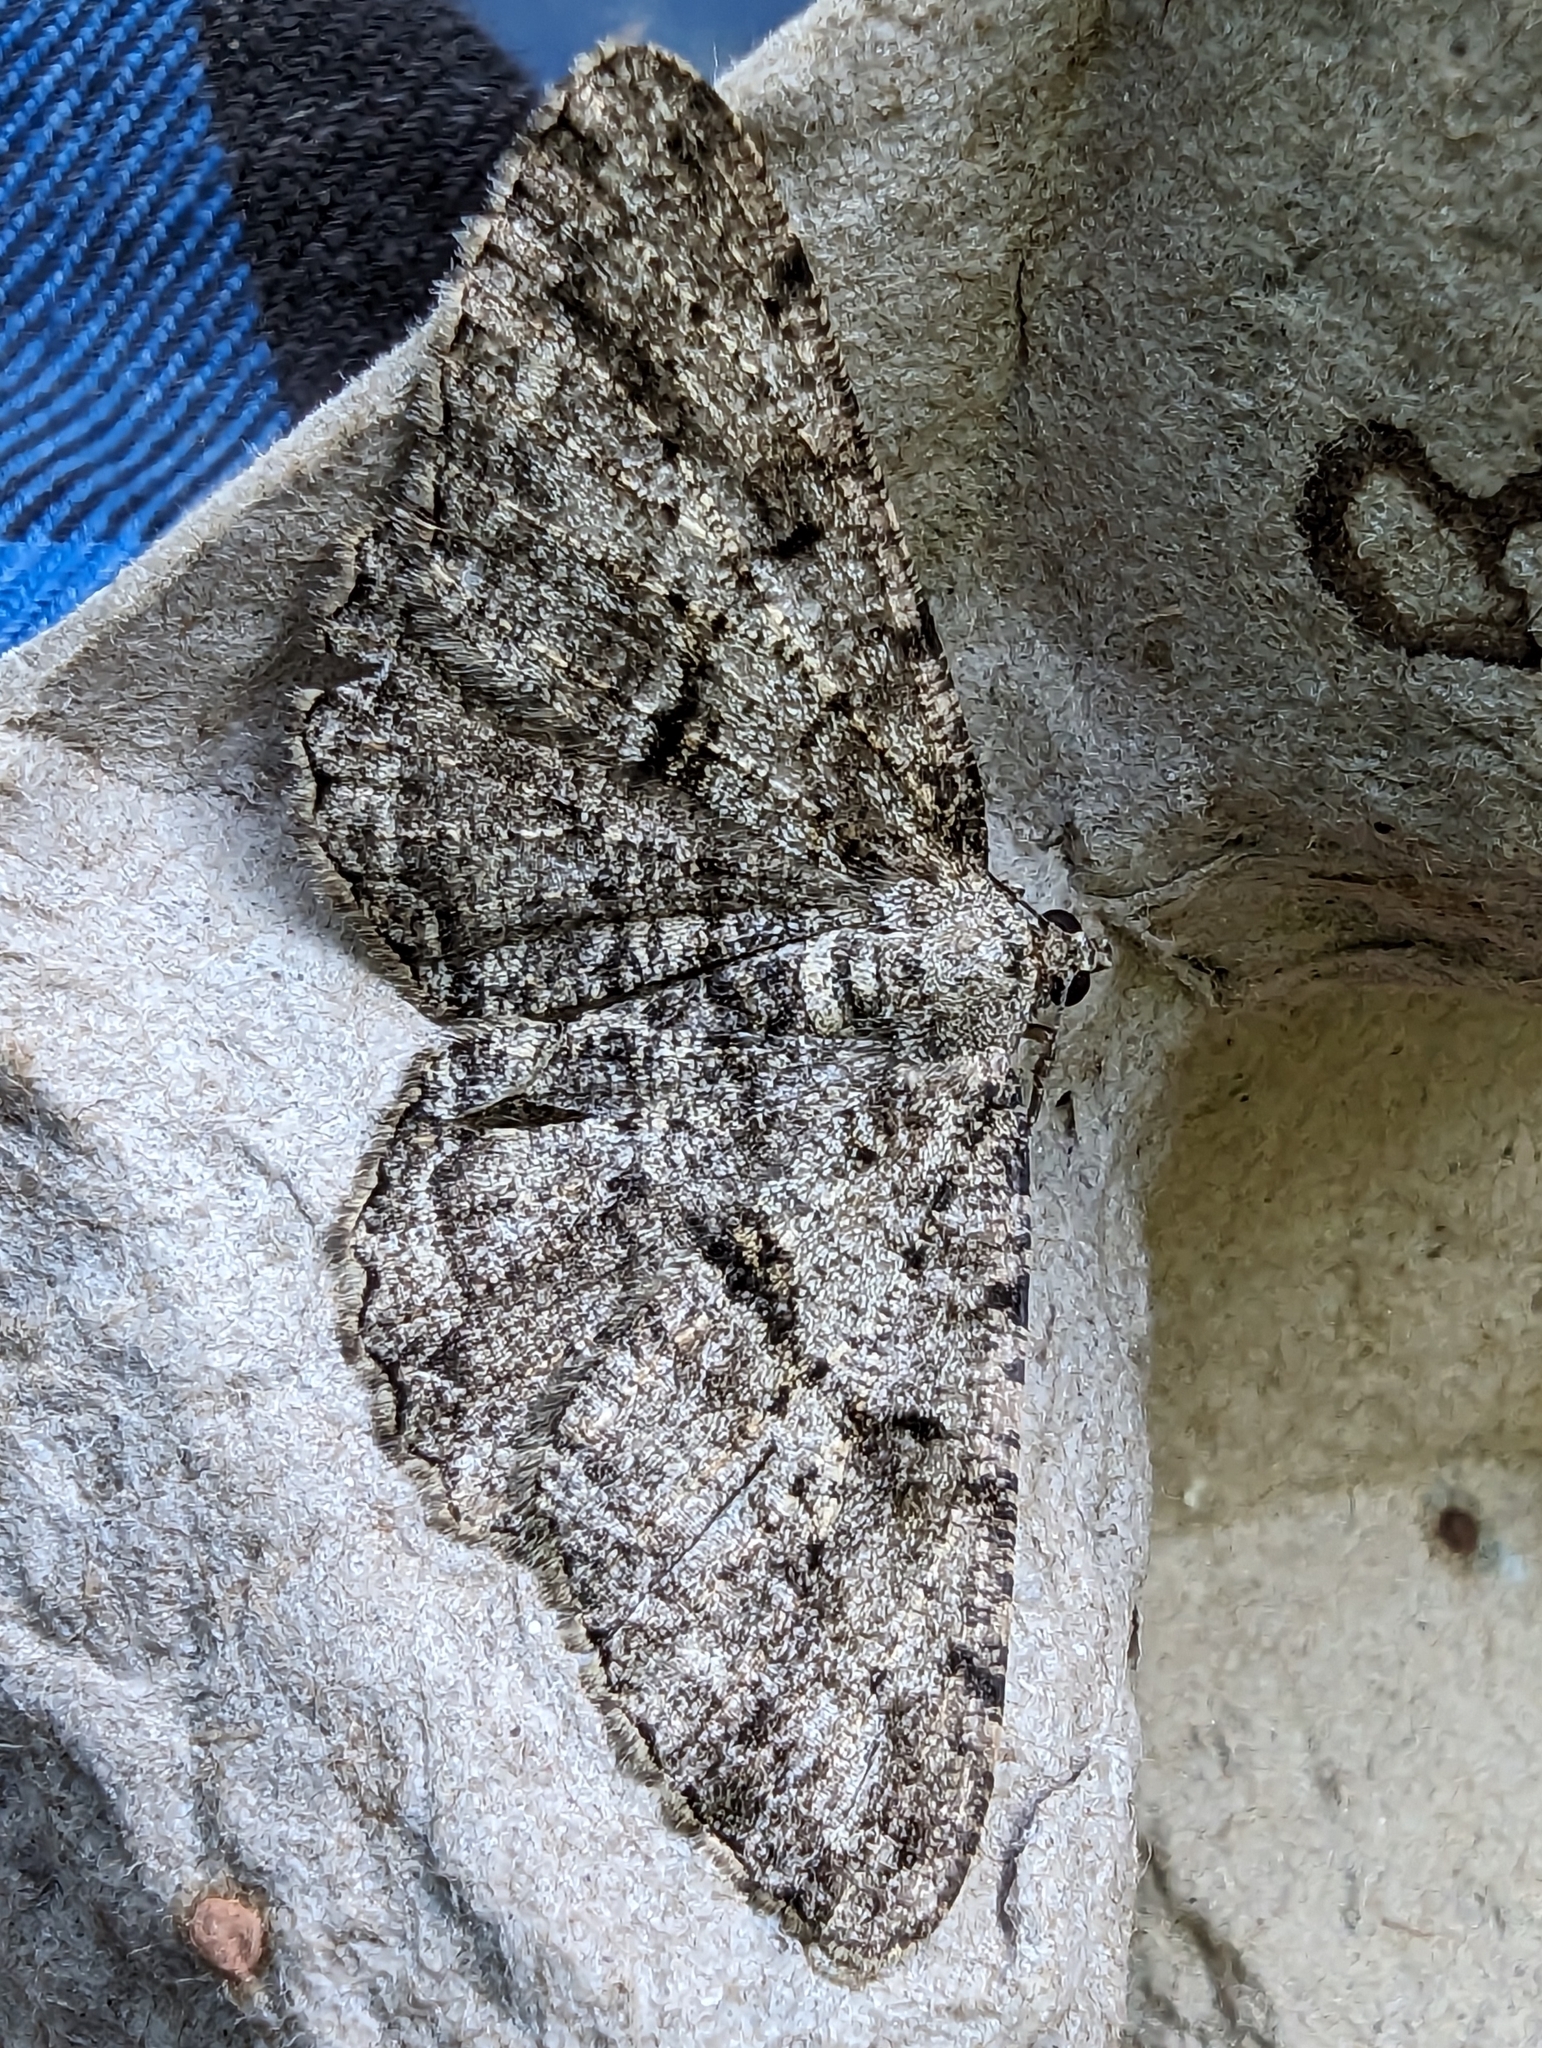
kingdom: Animalia
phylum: Arthropoda
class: Insecta
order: Lepidoptera
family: Geometridae
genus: Peribatodes
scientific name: Peribatodes rhomboidaria
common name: Willow beauty
